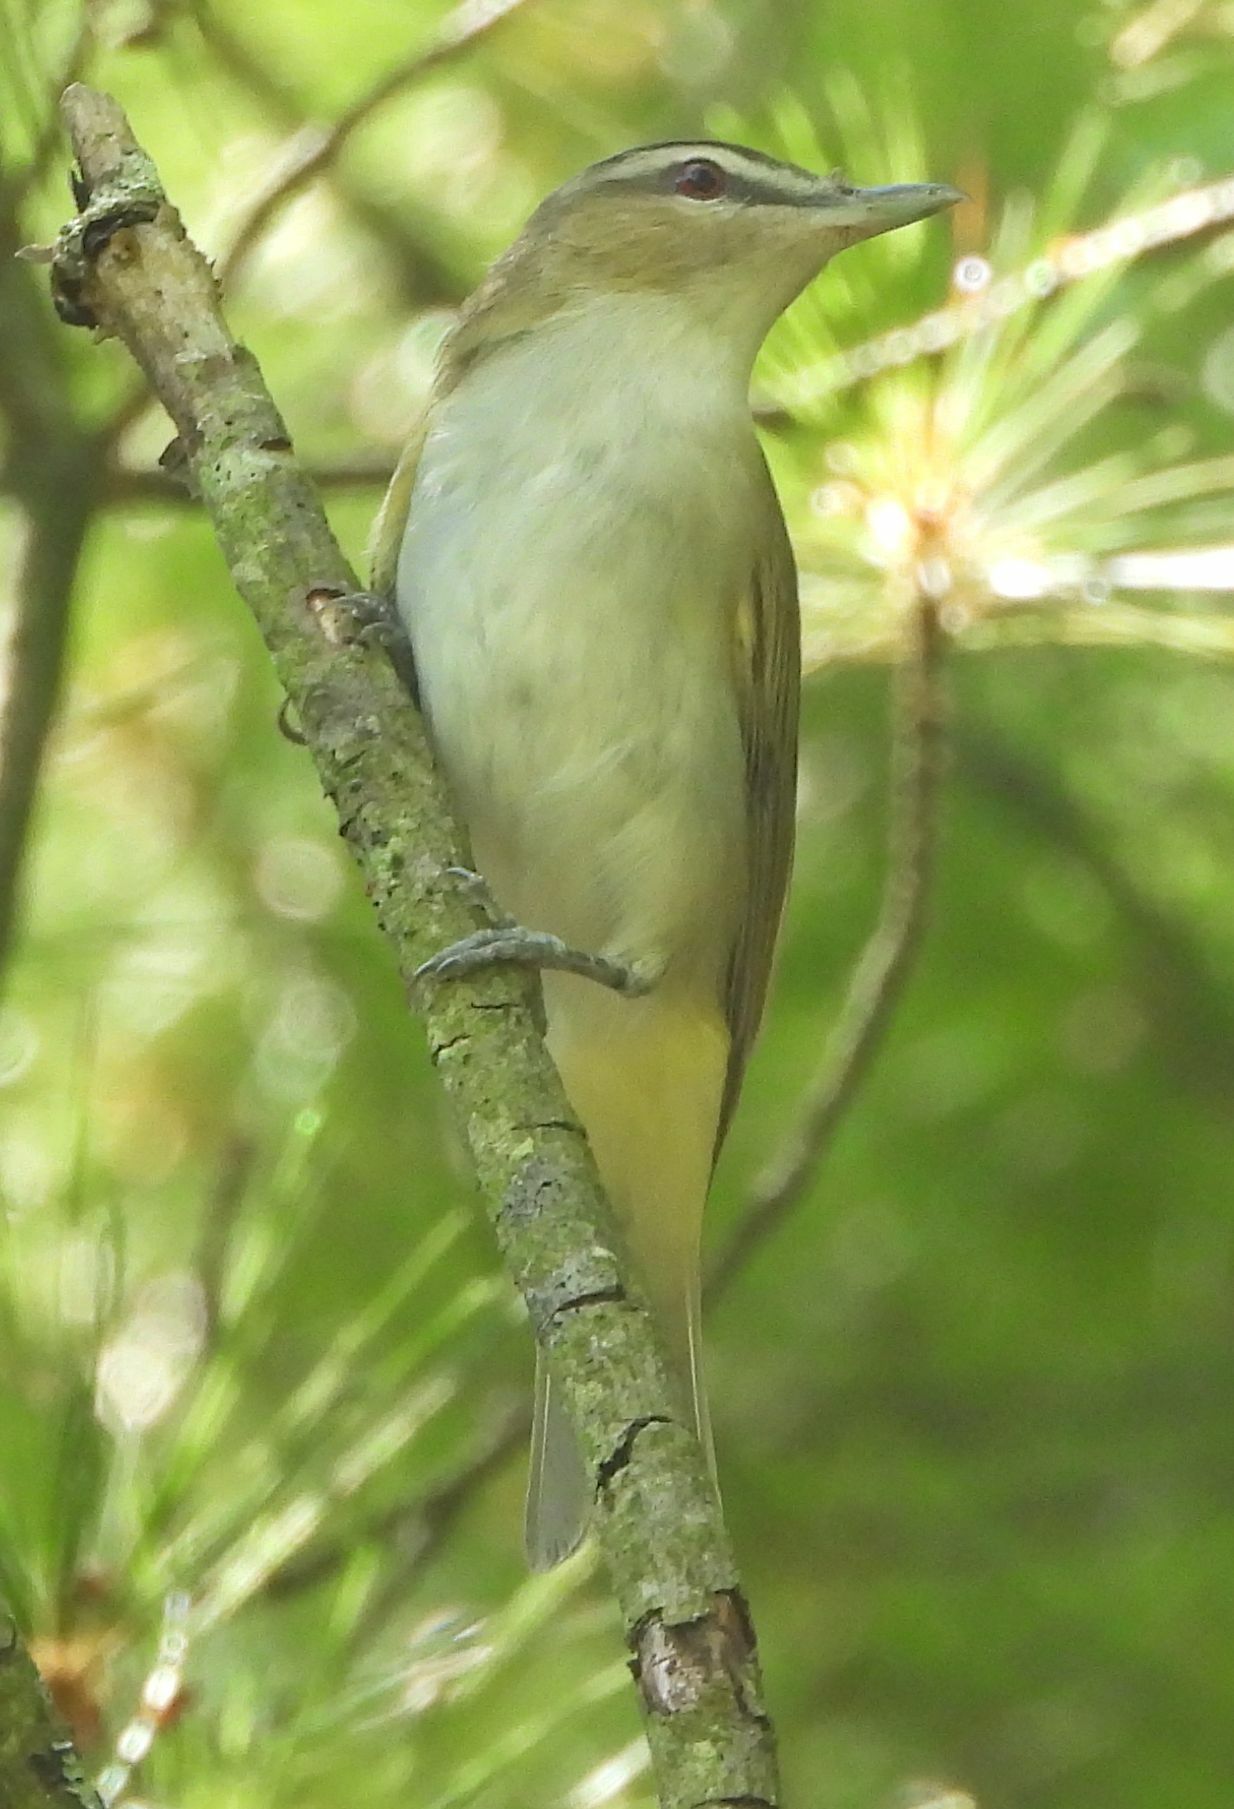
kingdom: Animalia
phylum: Chordata
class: Aves
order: Passeriformes
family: Vireonidae
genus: Vireo
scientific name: Vireo olivaceus
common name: Red-eyed vireo
